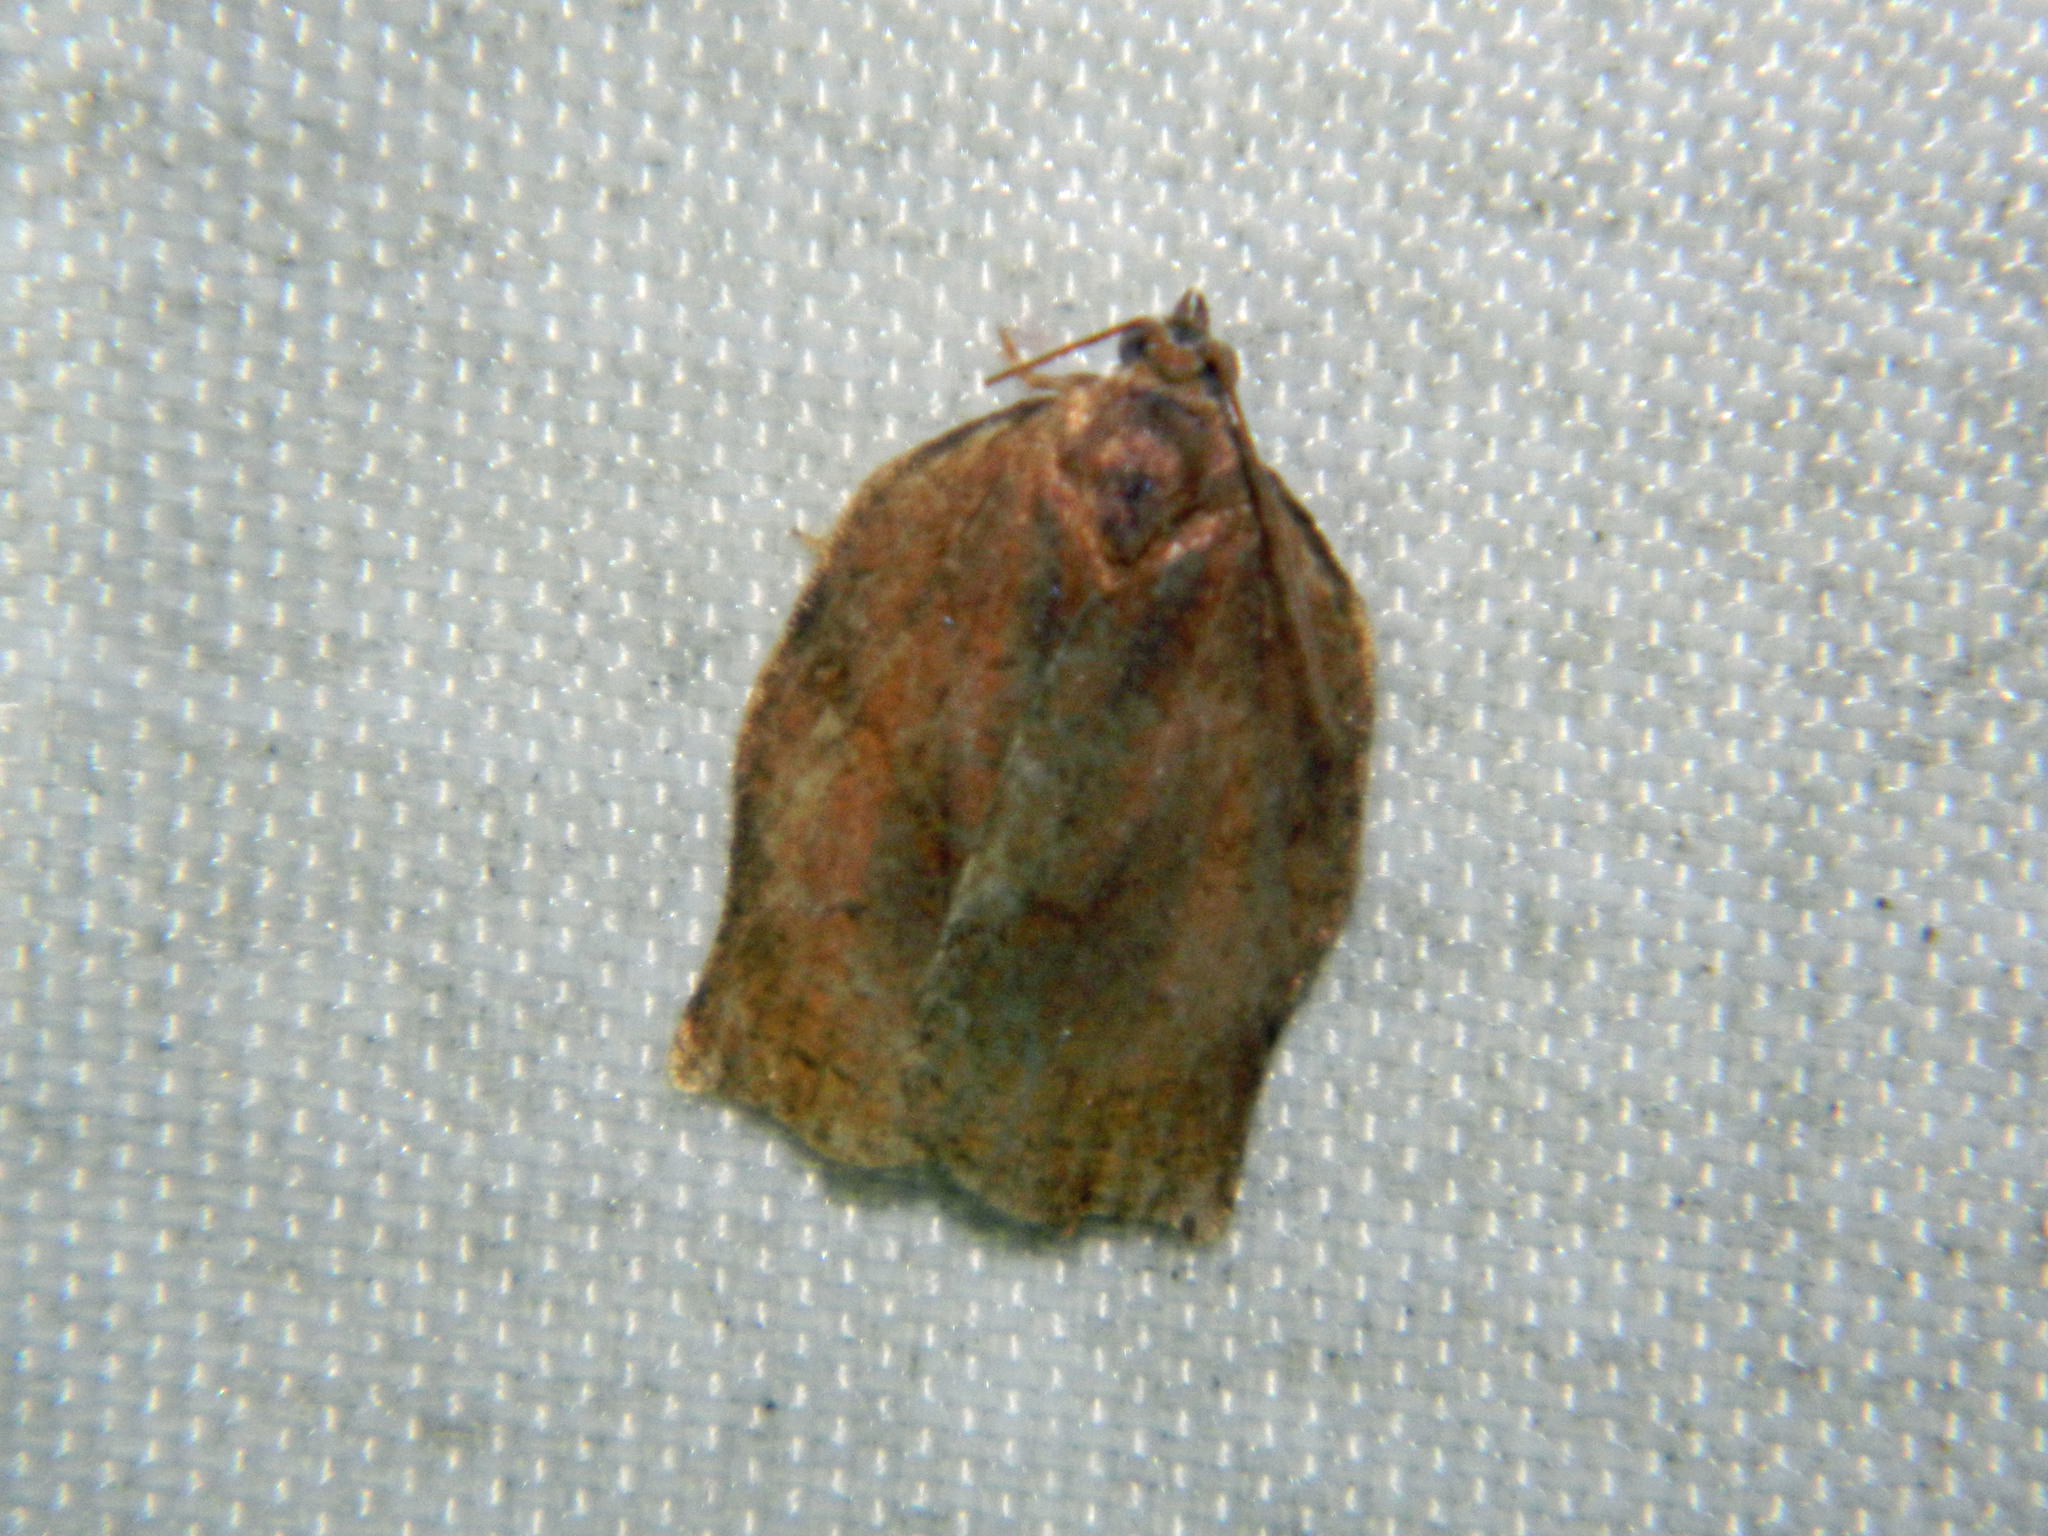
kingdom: Animalia
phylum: Arthropoda
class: Insecta
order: Lepidoptera
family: Tortricidae
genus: Archips
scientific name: Archips purpurana
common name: Omnivorous leafroller
